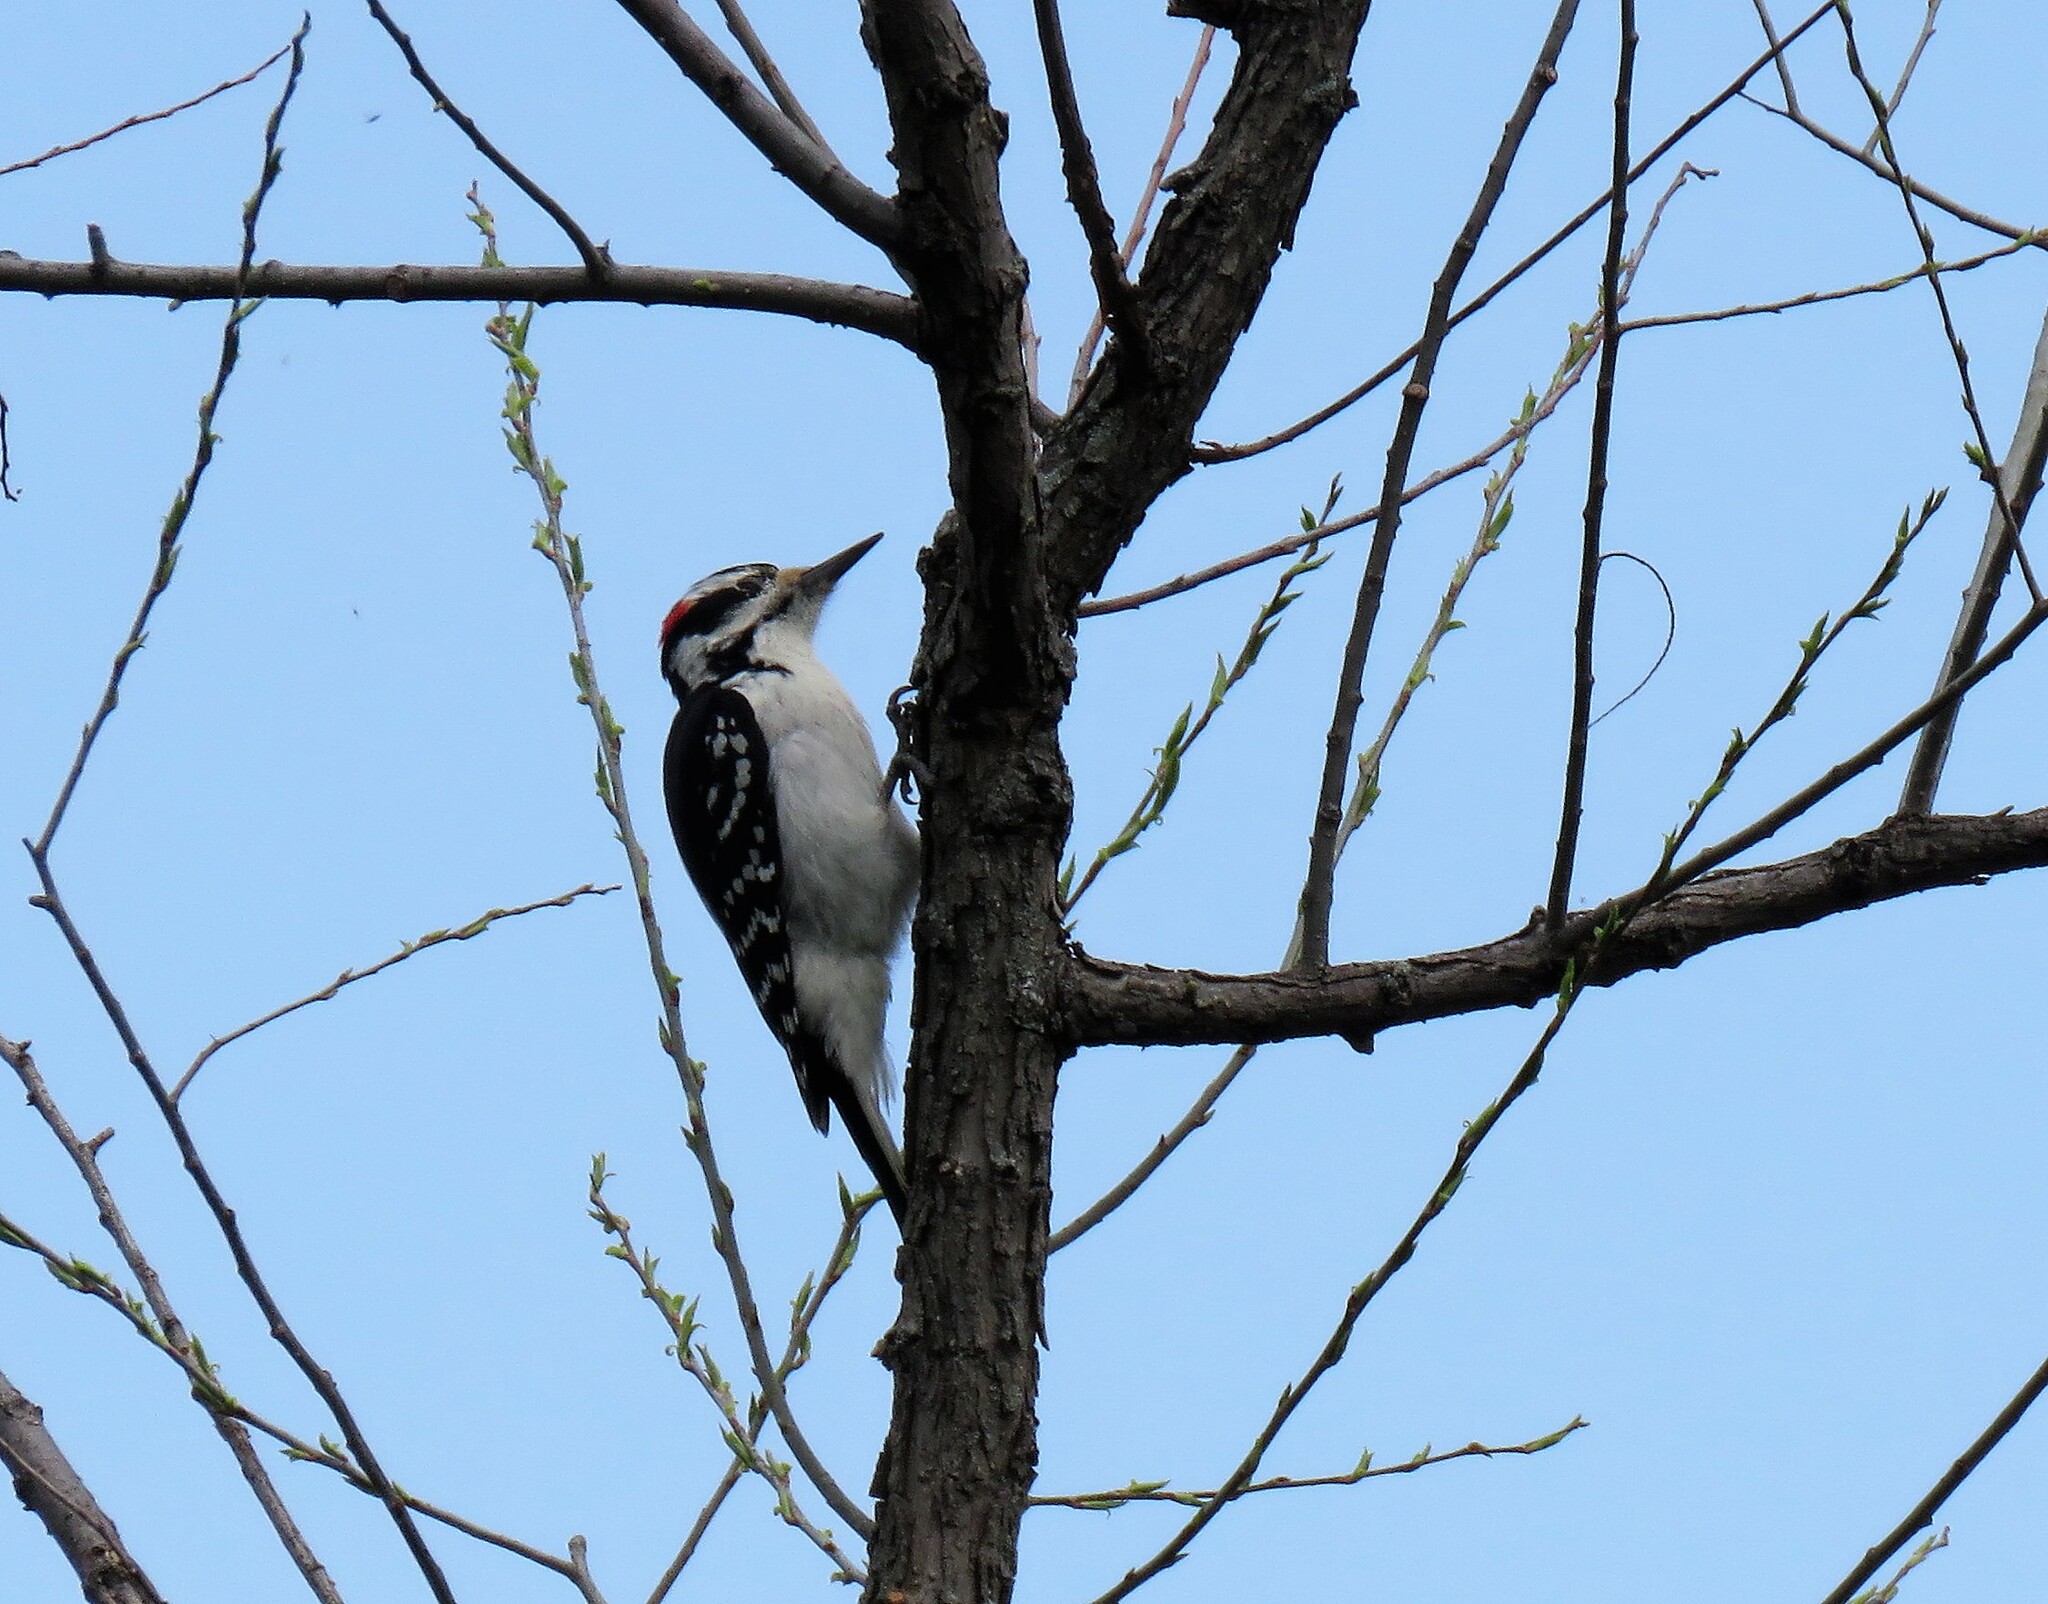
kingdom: Animalia
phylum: Chordata
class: Aves
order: Piciformes
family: Picidae
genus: Leuconotopicus
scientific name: Leuconotopicus villosus
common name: Hairy woodpecker
